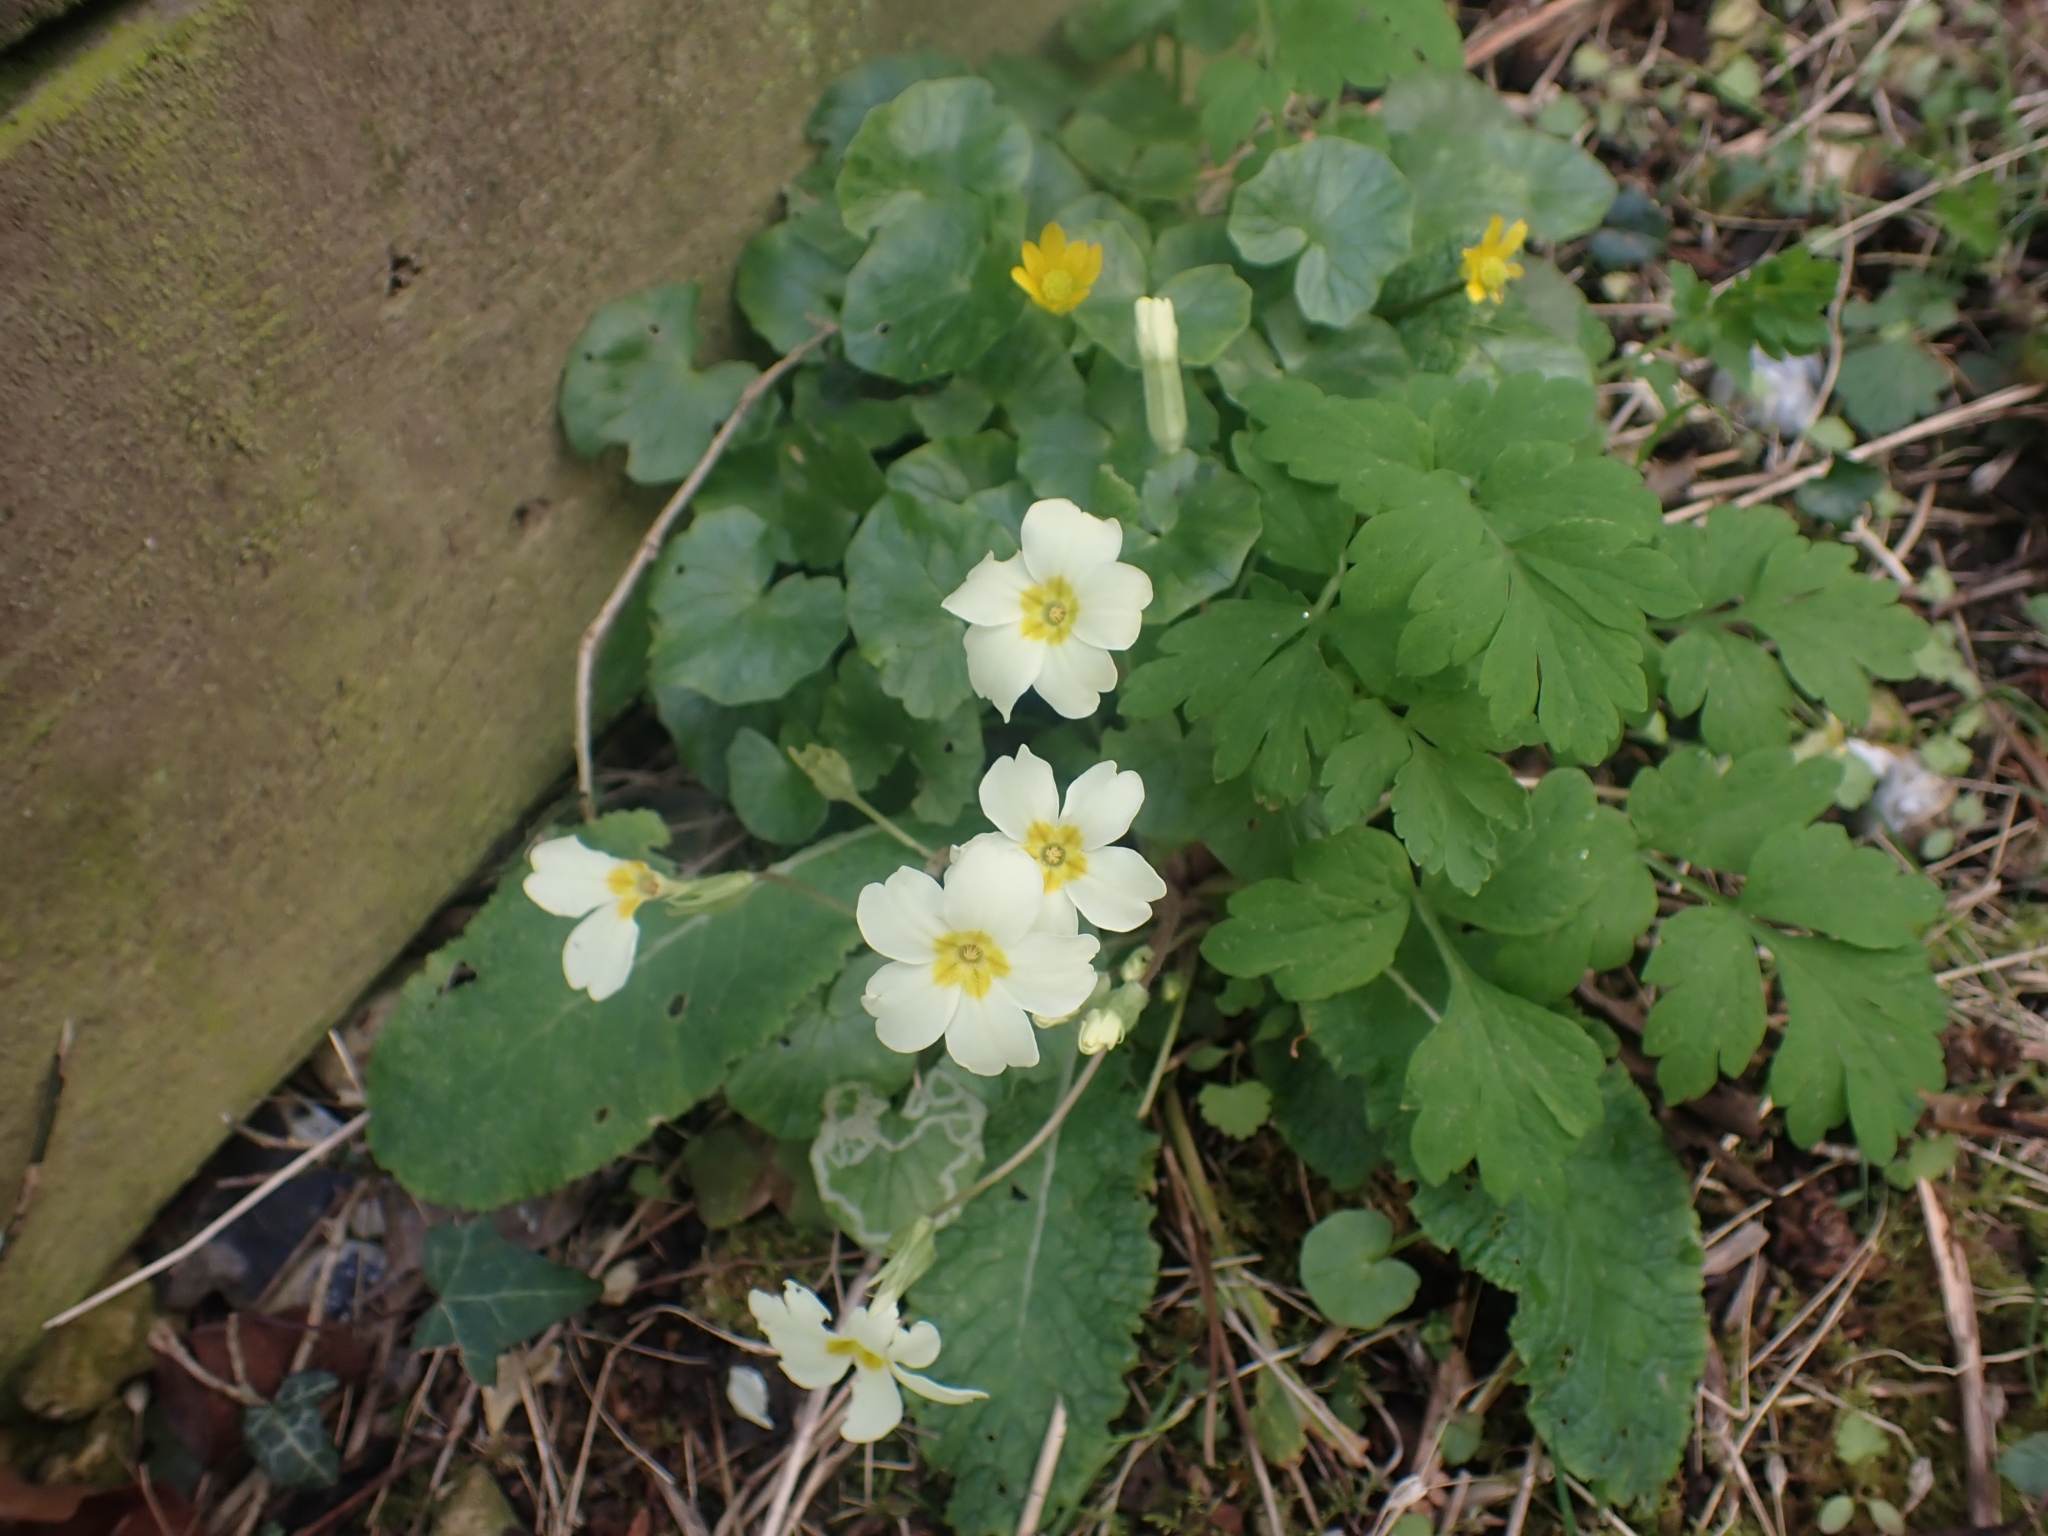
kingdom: Plantae
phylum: Tracheophyta
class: Magnoliopsida
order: Ericales
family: Primulaceae
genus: Primula
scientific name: Primula vulgaris
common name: Primrose
